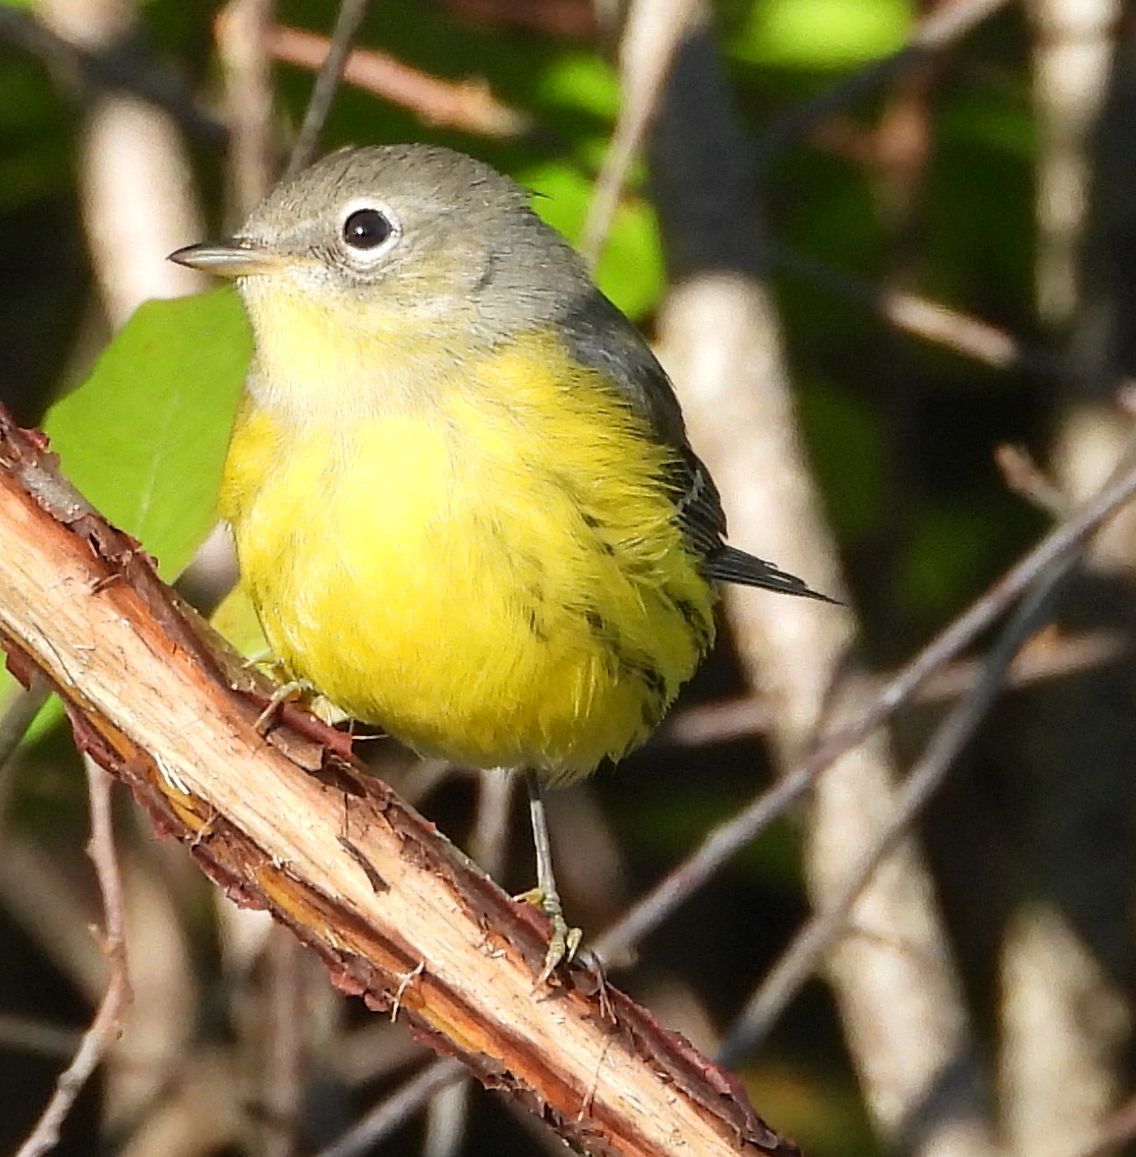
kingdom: Animalia
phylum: Chordata
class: Aves
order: Passeriformes
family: Parulidae
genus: Setophaga
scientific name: Setophaga magnolia
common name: Magnolia warbler
